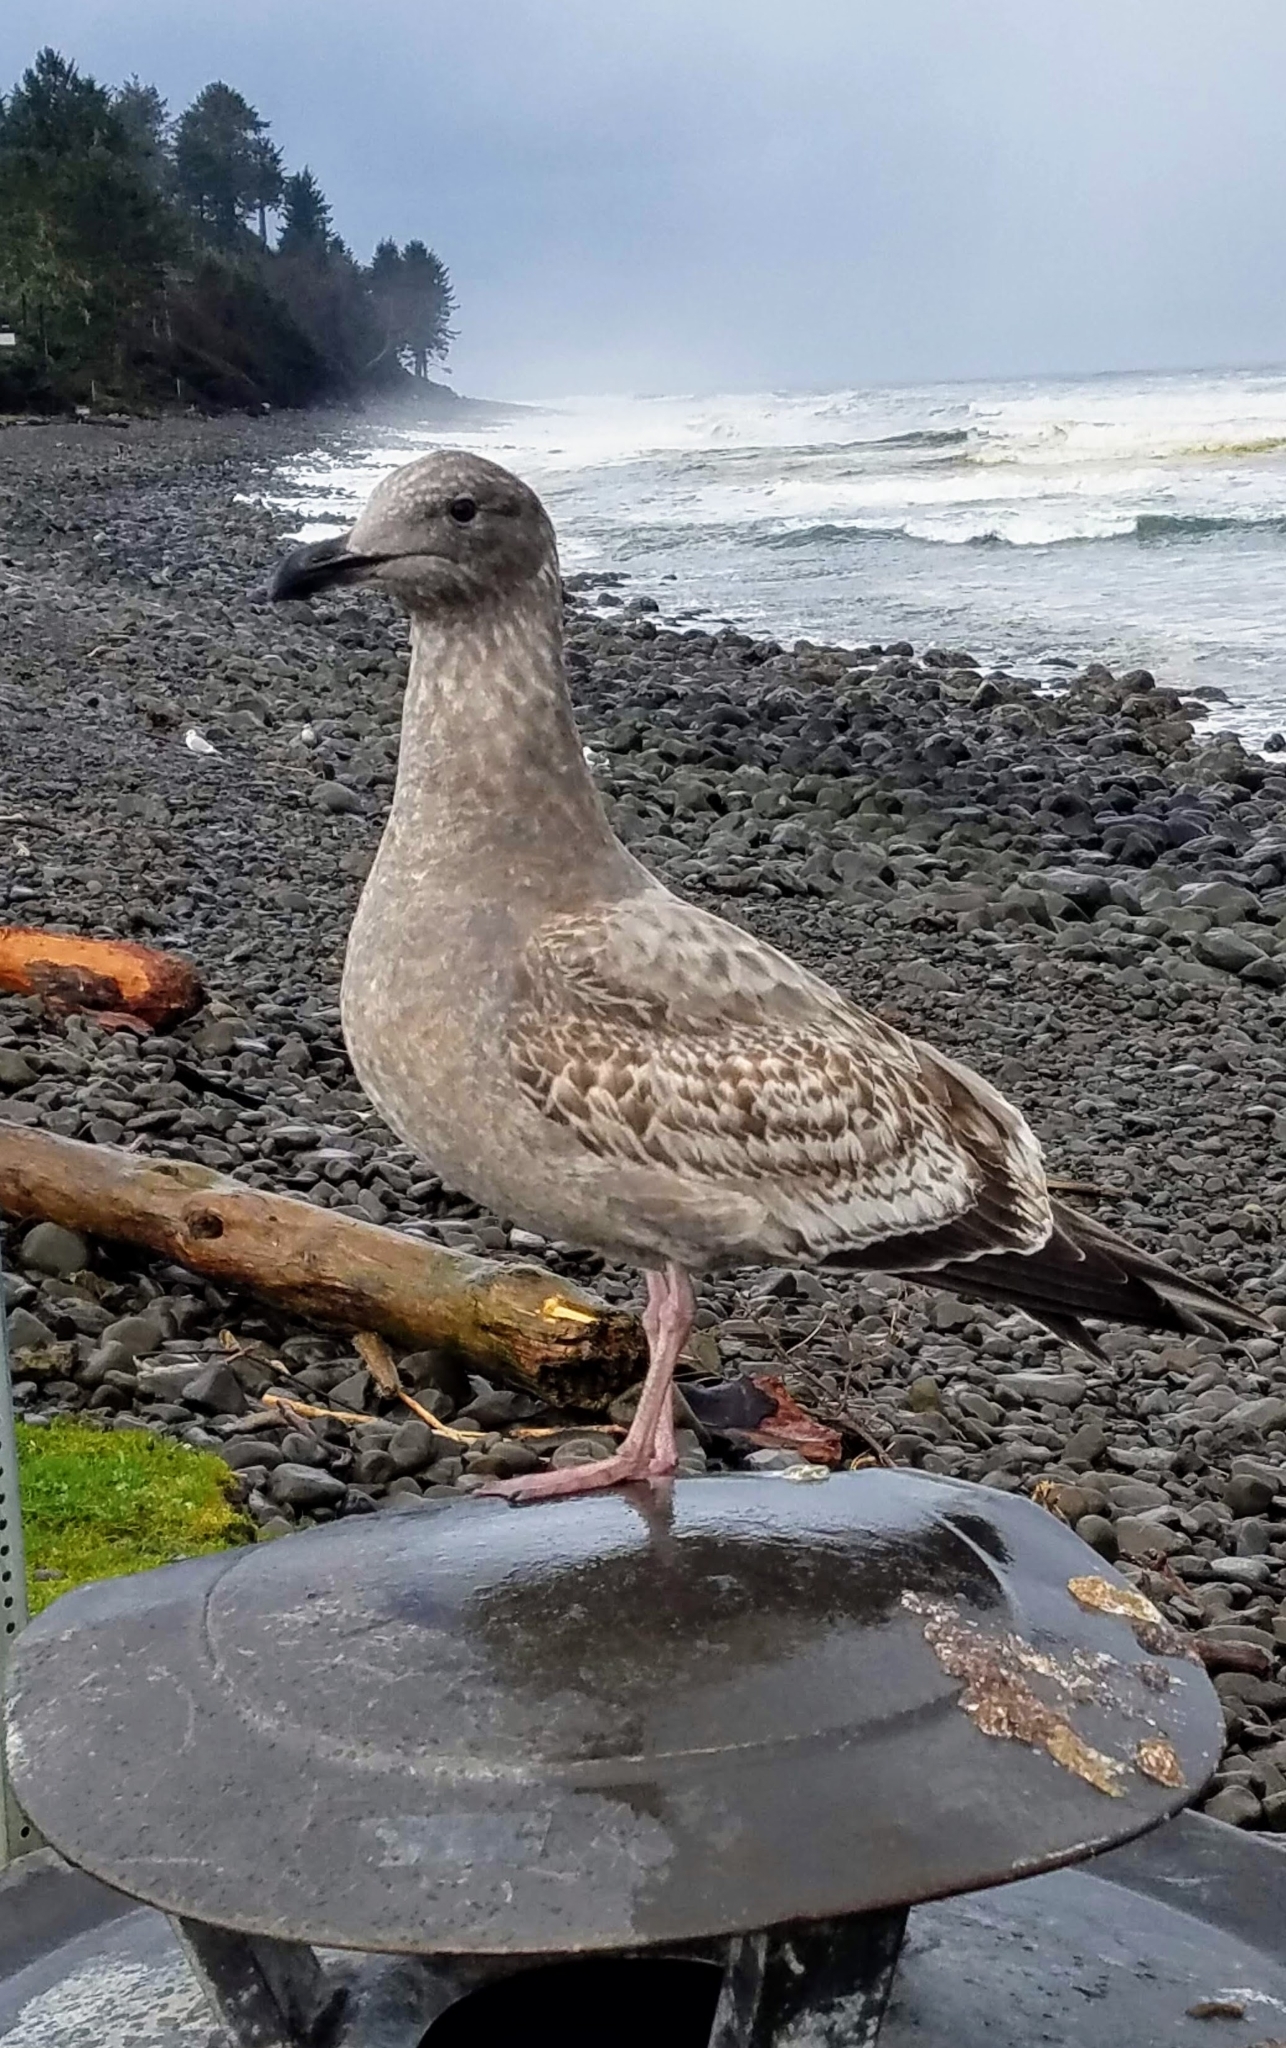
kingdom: Animalia
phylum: Chordata
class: Aves
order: Charadriiformes
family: Laridae
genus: Larus
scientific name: Larus occidentalis
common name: Western gull
